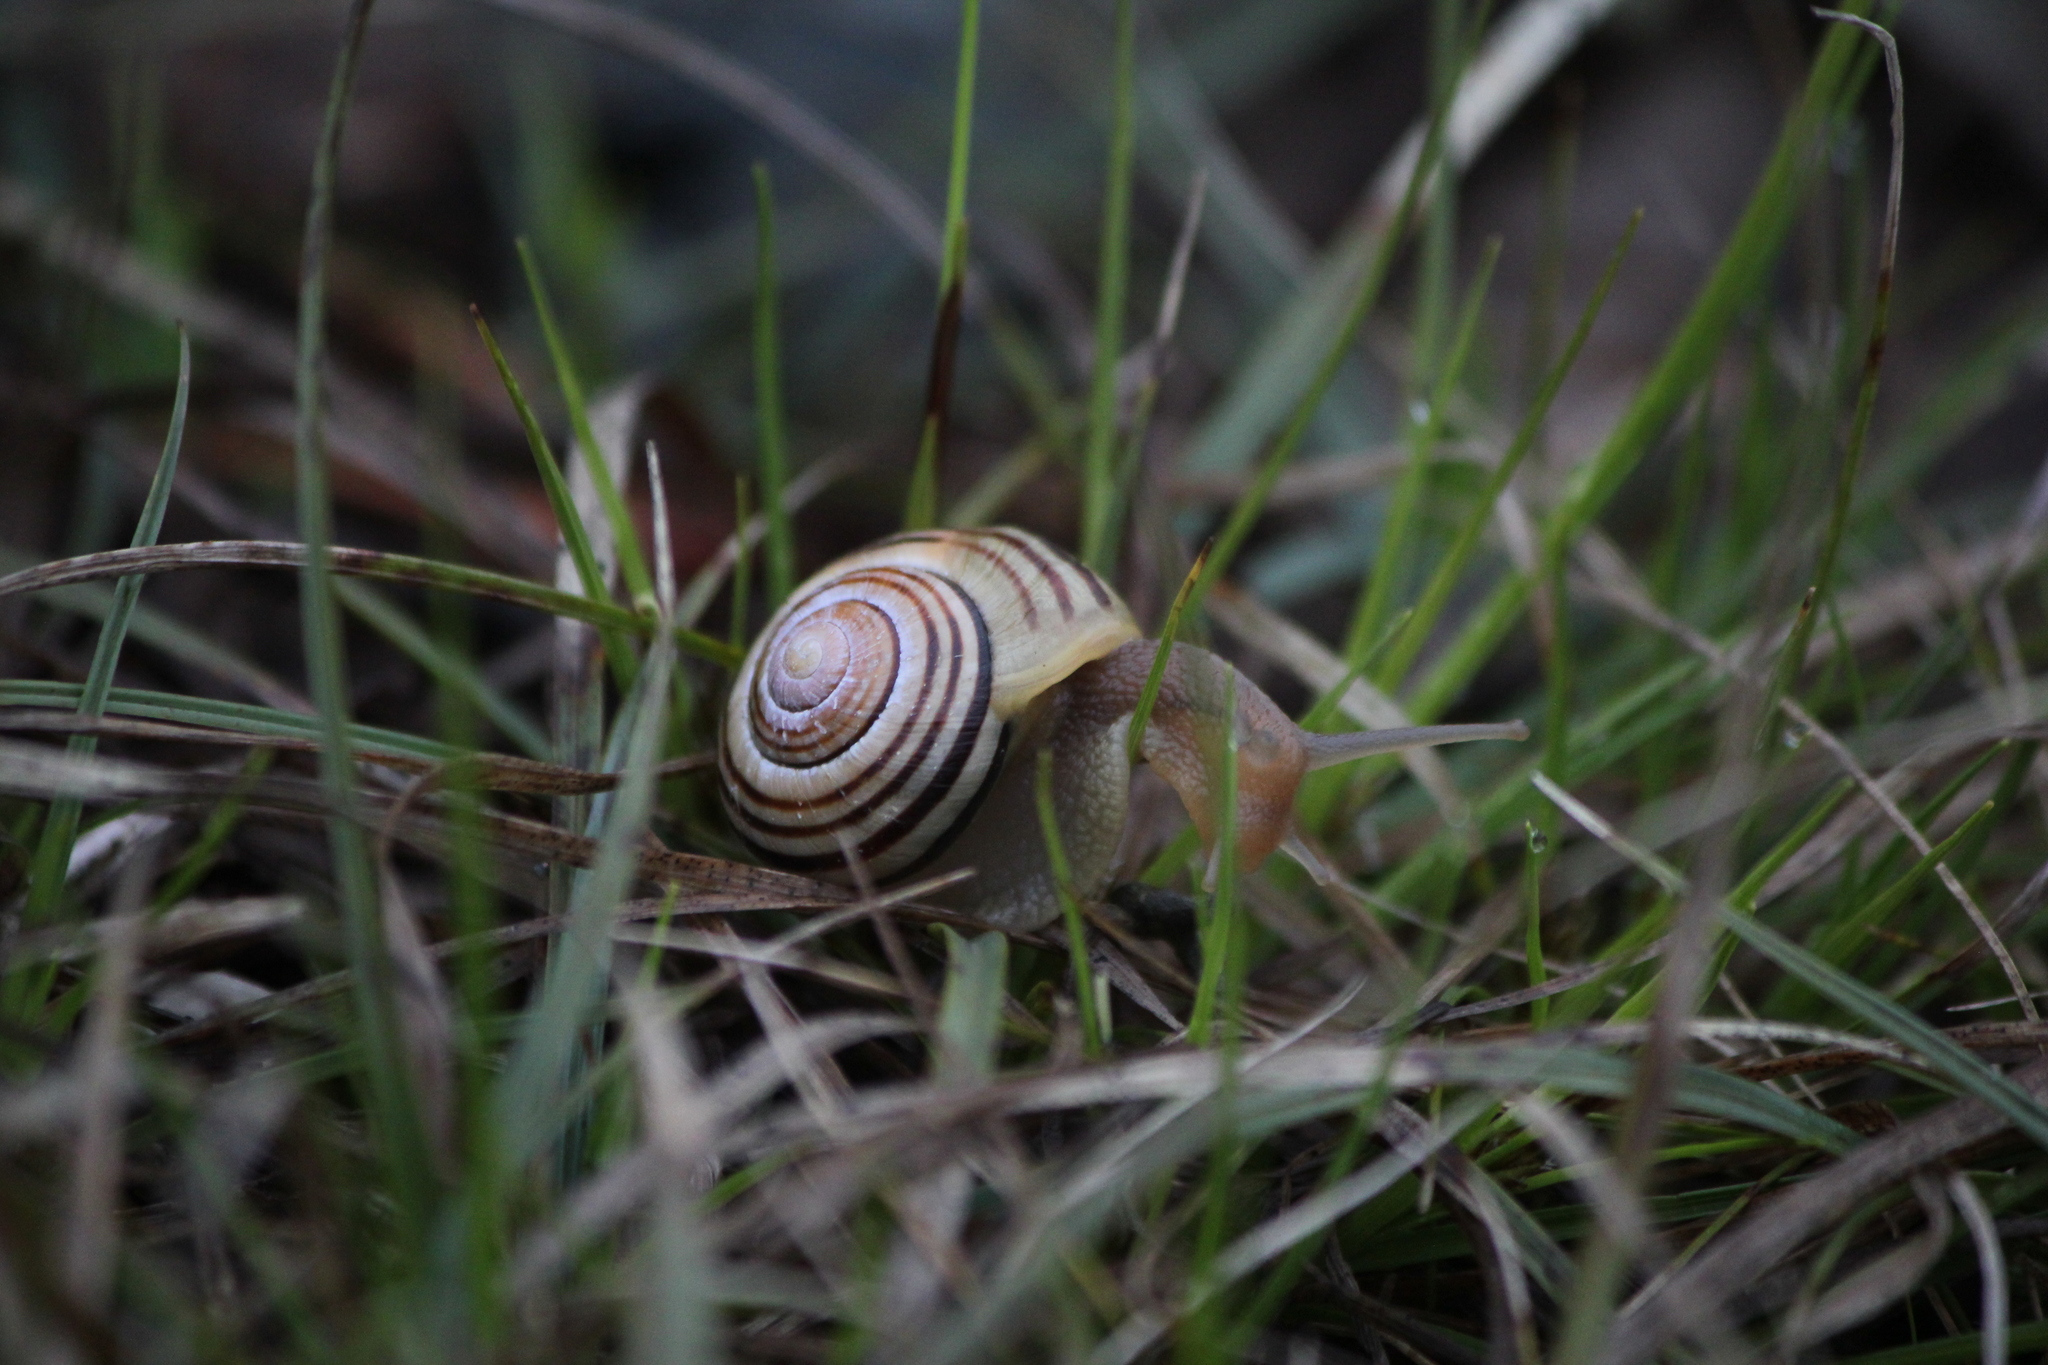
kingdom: Animalia
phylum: Mollusca
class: Gastropoda
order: Stylommatophora
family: Helicidae
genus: Cepaea
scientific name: Cepaea
